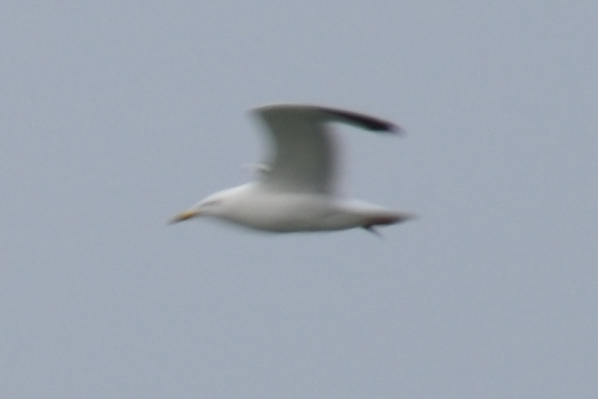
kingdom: Animalia
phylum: Chordata
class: Aves
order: Charadriiformes
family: Laridae
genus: Larus
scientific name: Larus vegae
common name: Vega gull
